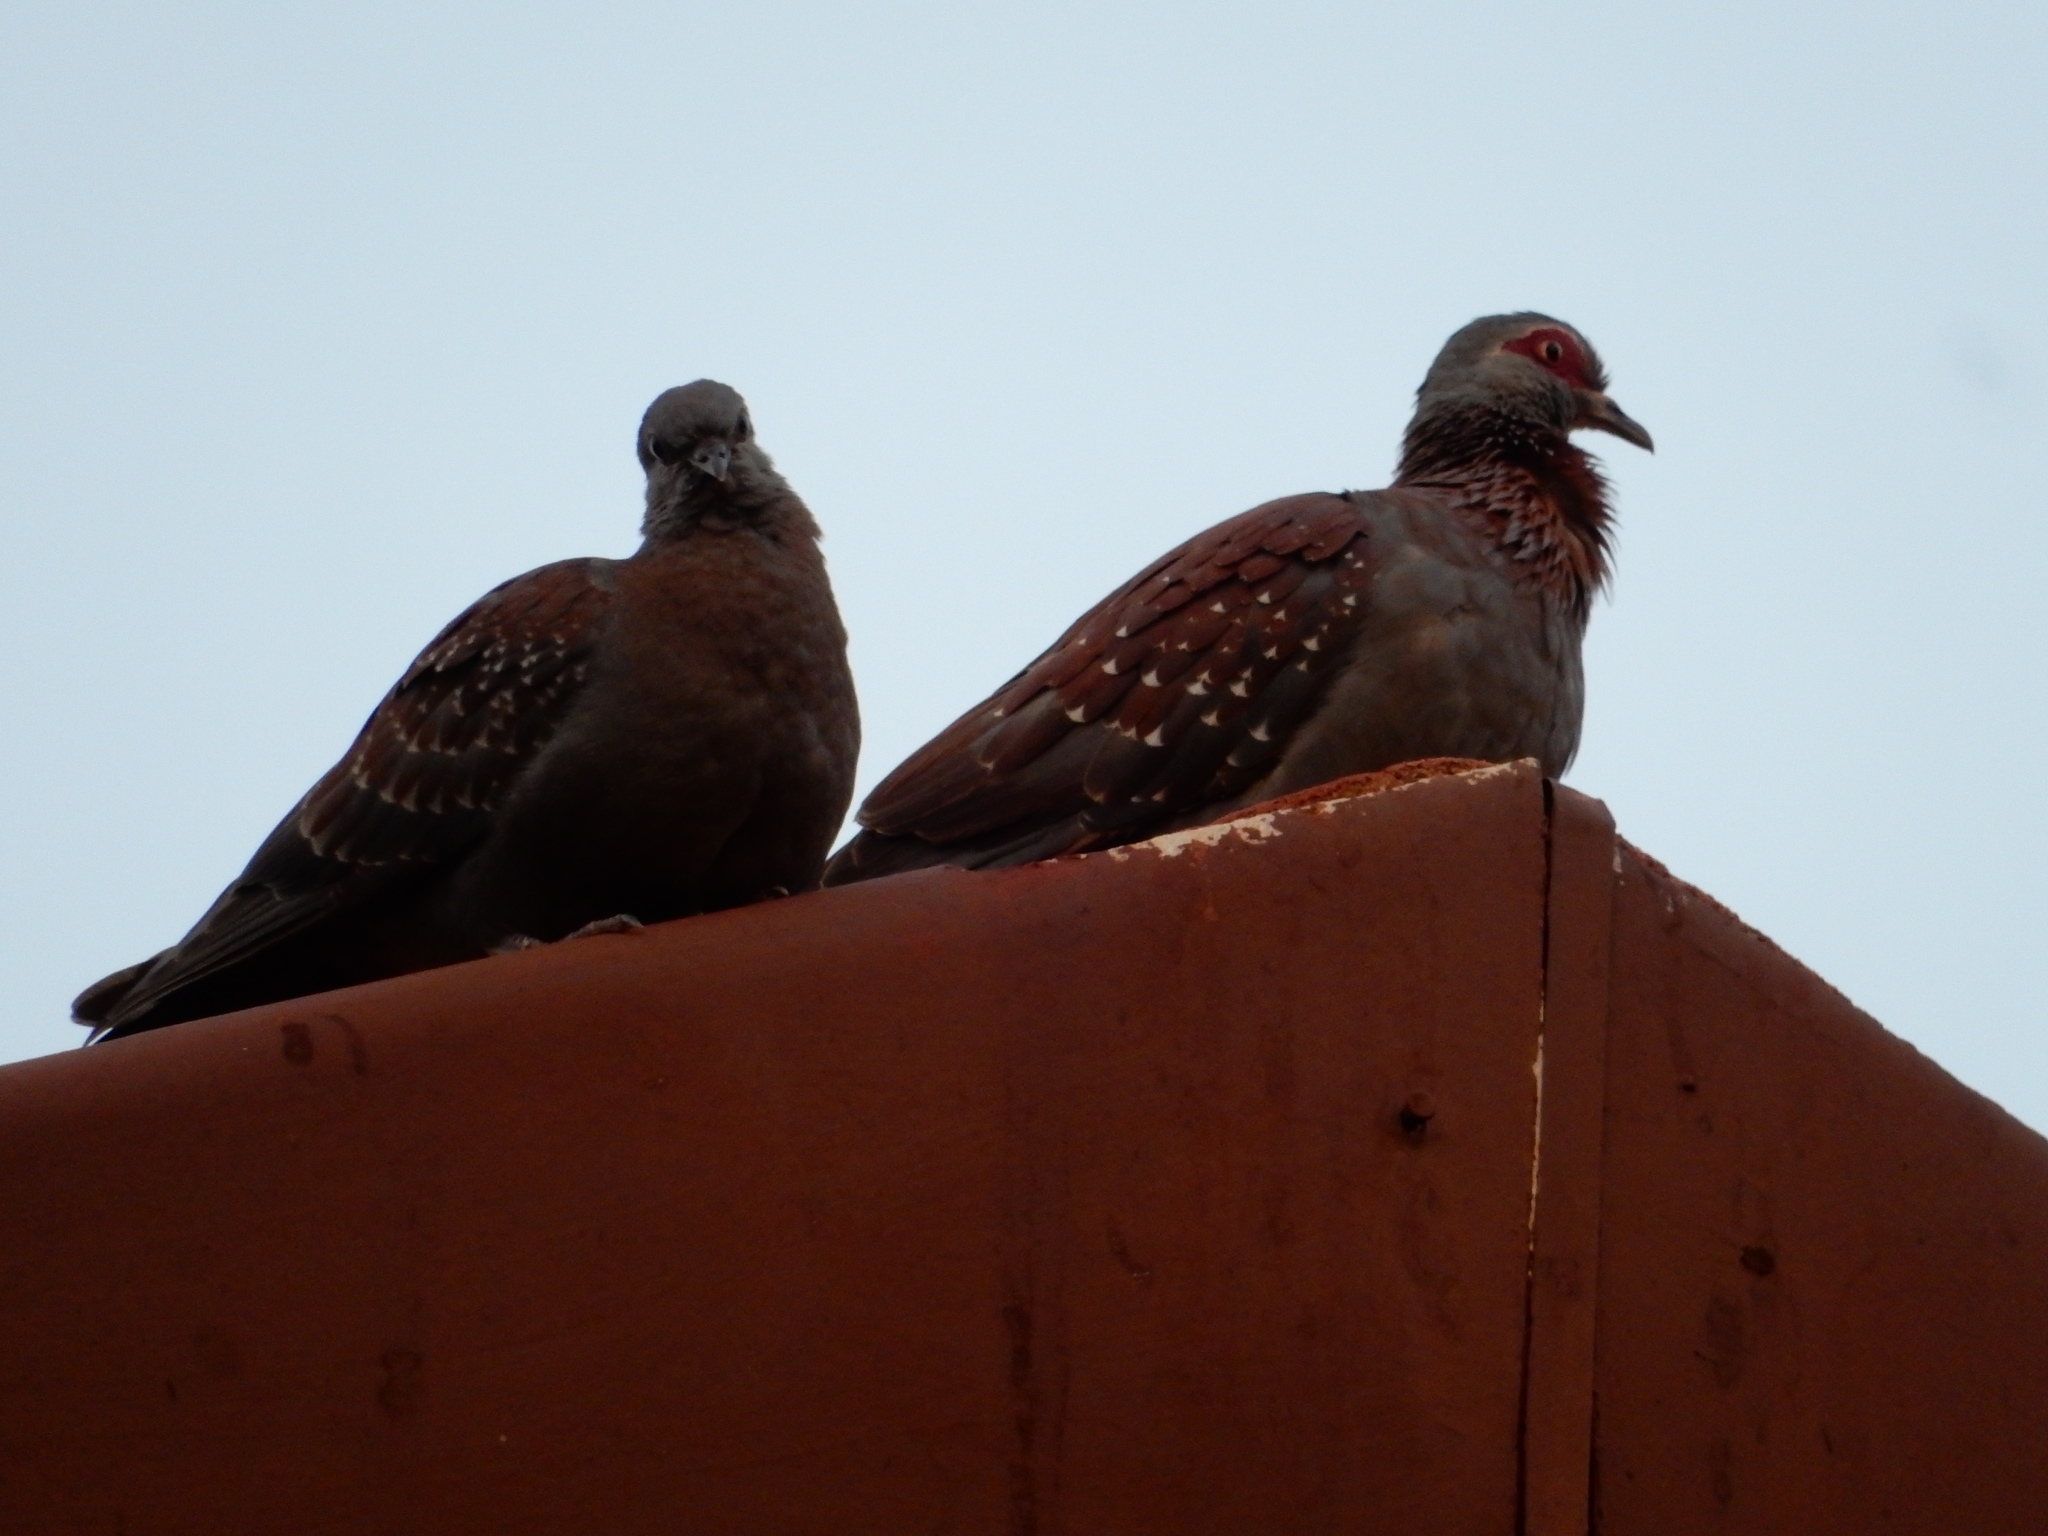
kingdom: Animalia
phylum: Chordata
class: Aves
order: Columbiformes
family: Columbidae
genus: Columba
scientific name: Columba guinea
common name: Speckled pigeon
